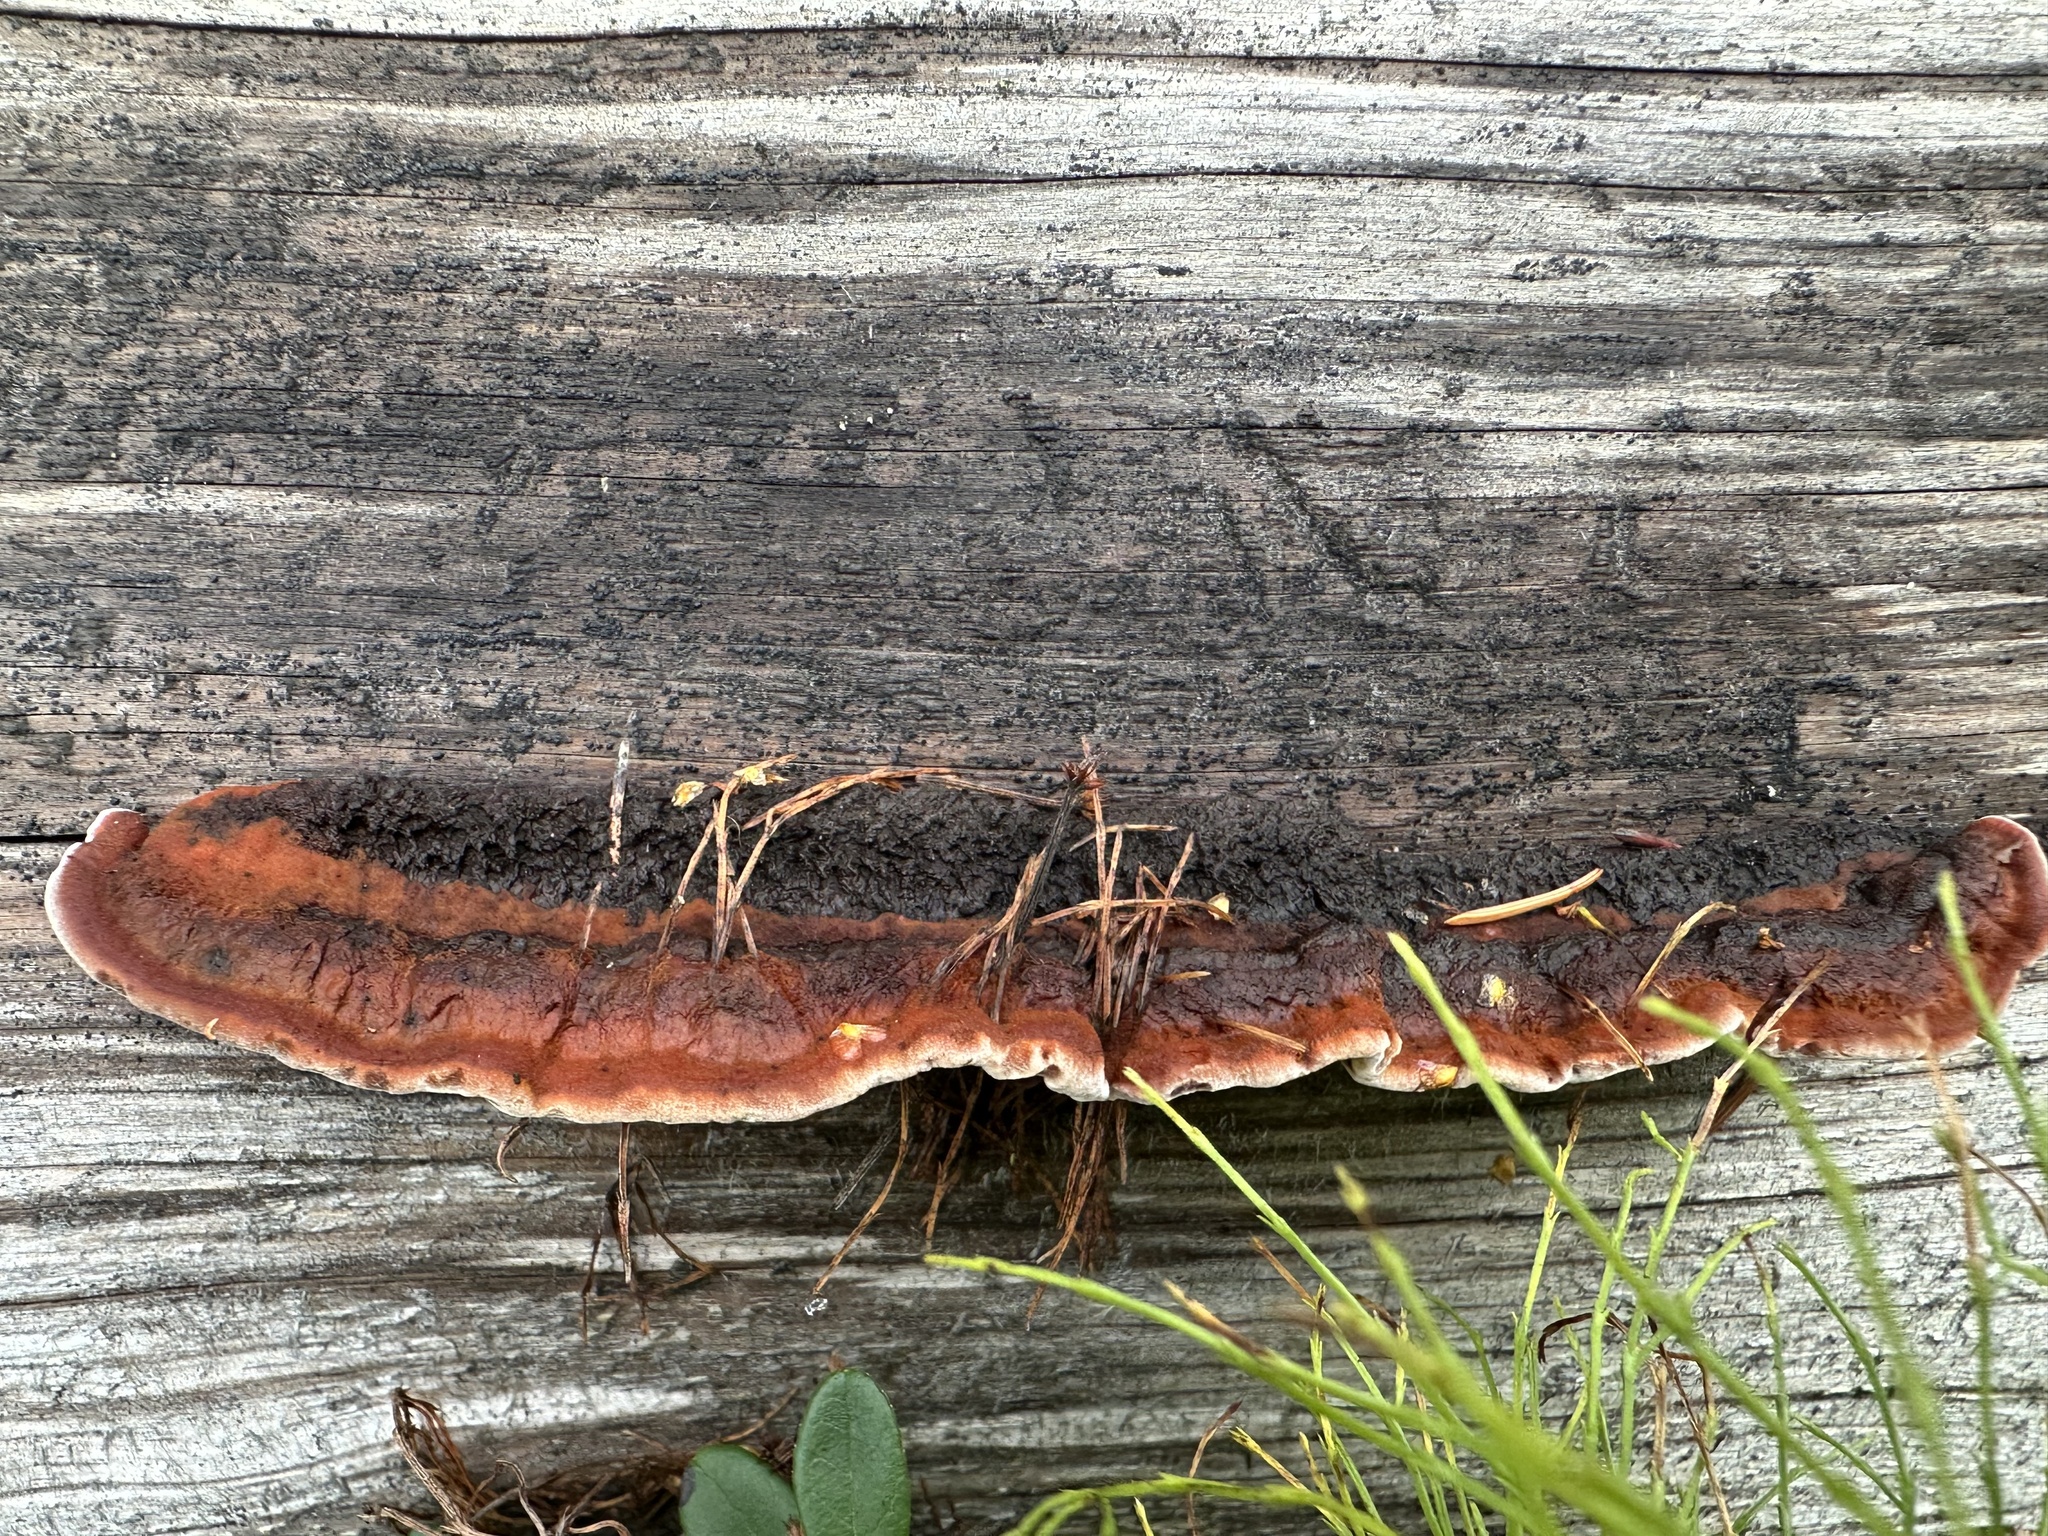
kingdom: Fungi
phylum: Basidiomycota
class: Agaricomycetes
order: Gloeophyllales
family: Gloeophyllaceae
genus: Gloeophyllum
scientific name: Gloeophyllum sepiarium
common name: Conifer mazegill
